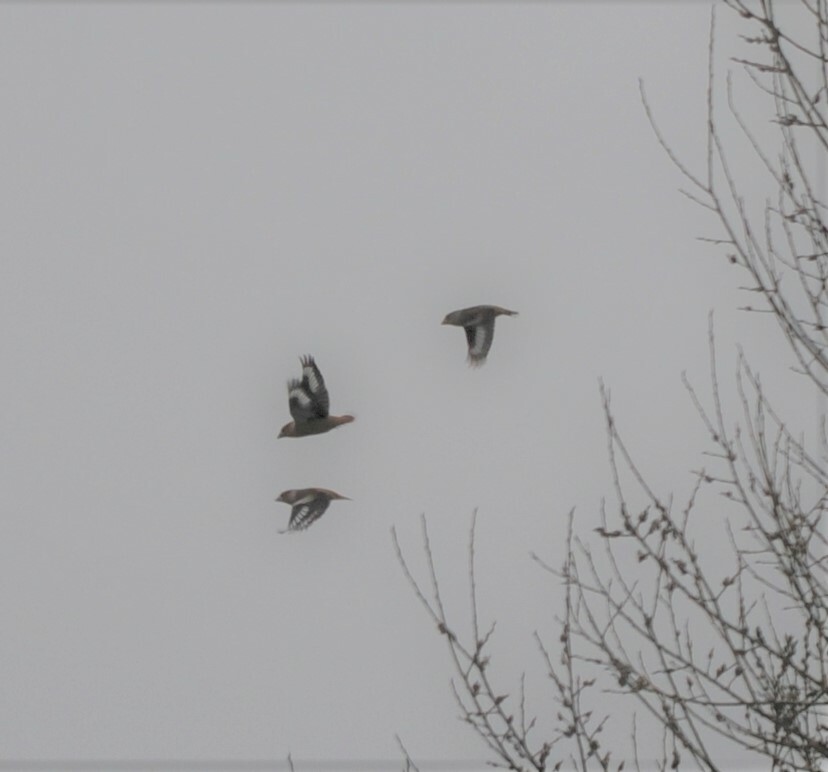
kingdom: Animalia
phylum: Chordata
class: Aves
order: Passeriformes
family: Fringillidae
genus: Coccothraustes
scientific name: Coccothraustes coccothraustes
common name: Hawfinch
